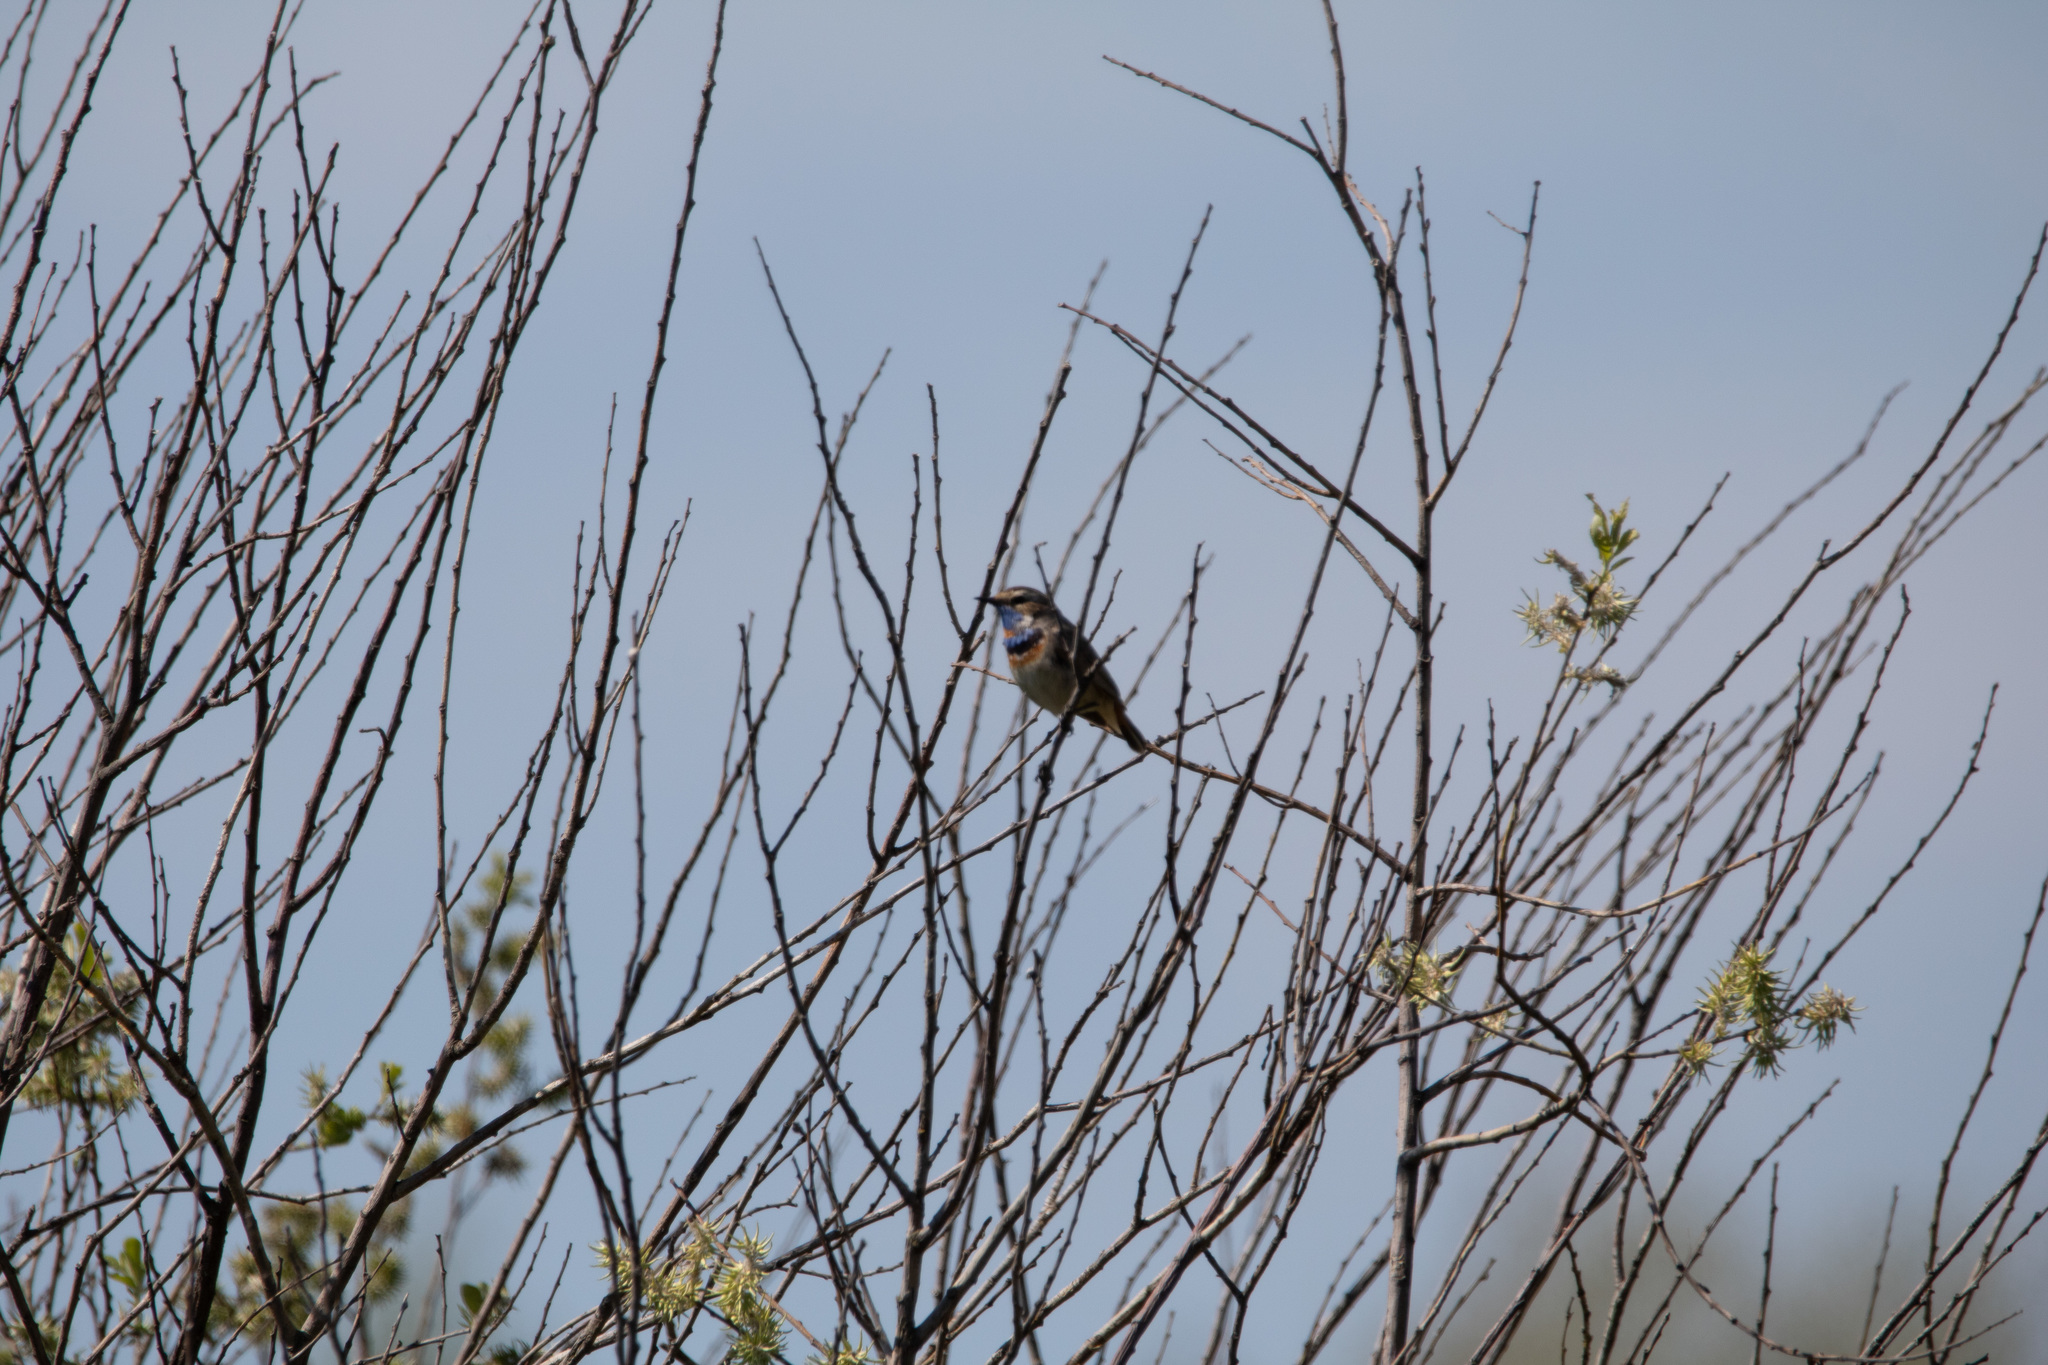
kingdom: Animalia
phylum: Chordata
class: Aves
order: Passeriformes
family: Muscicapidae
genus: Luscinia
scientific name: Luscinia svecica
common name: Bluethroat
